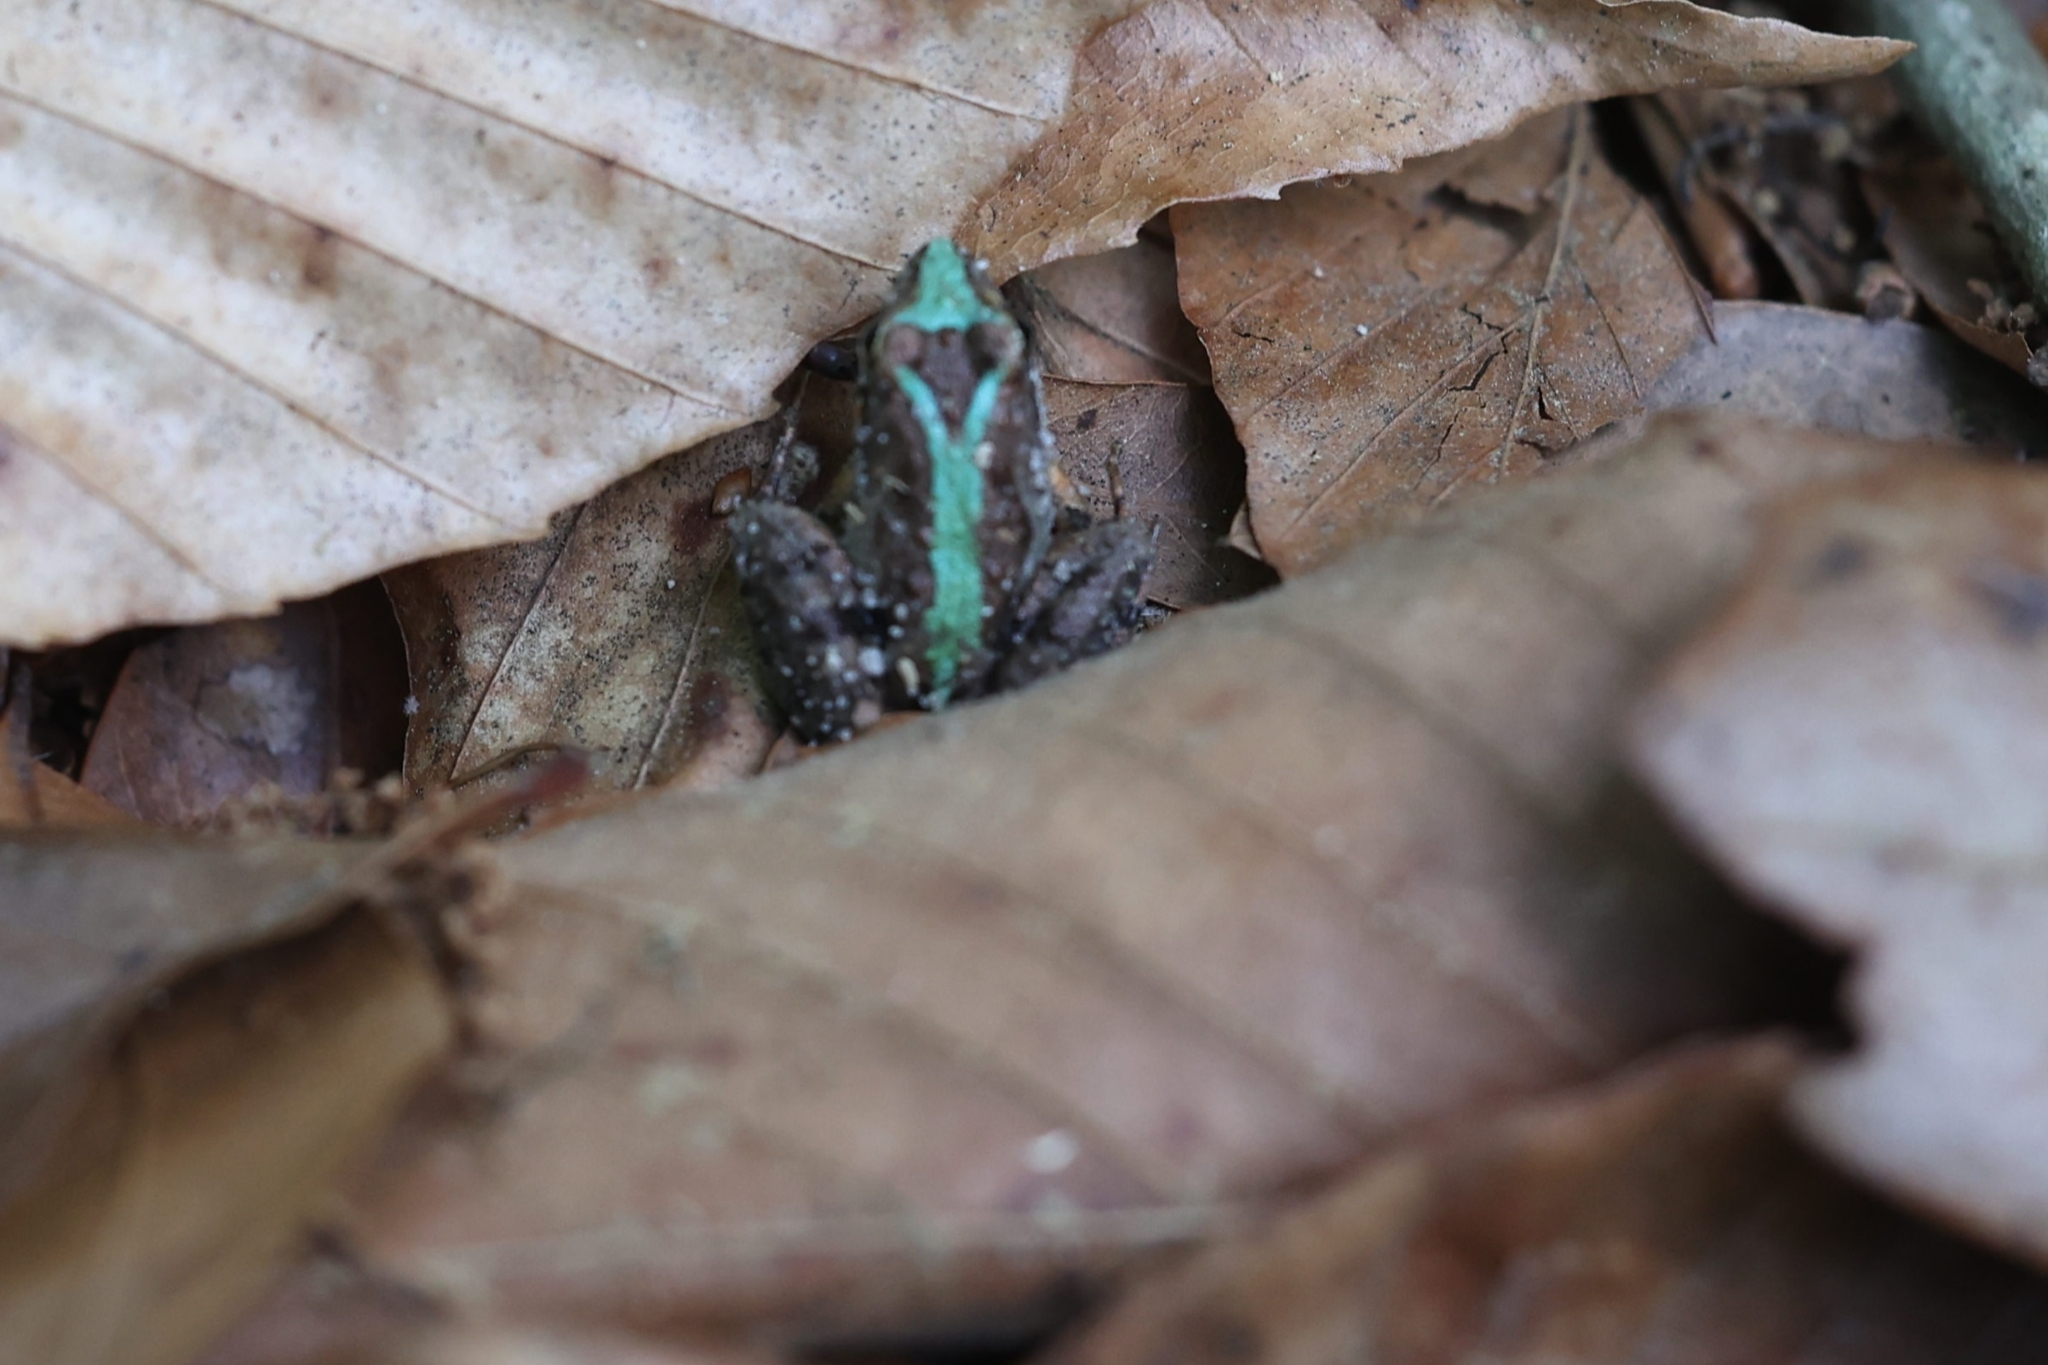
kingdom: Animalia
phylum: Chordata
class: Amphibia
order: Anura
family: Hylidae
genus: Acris
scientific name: Acris gryllus
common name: Southern cricket frog
